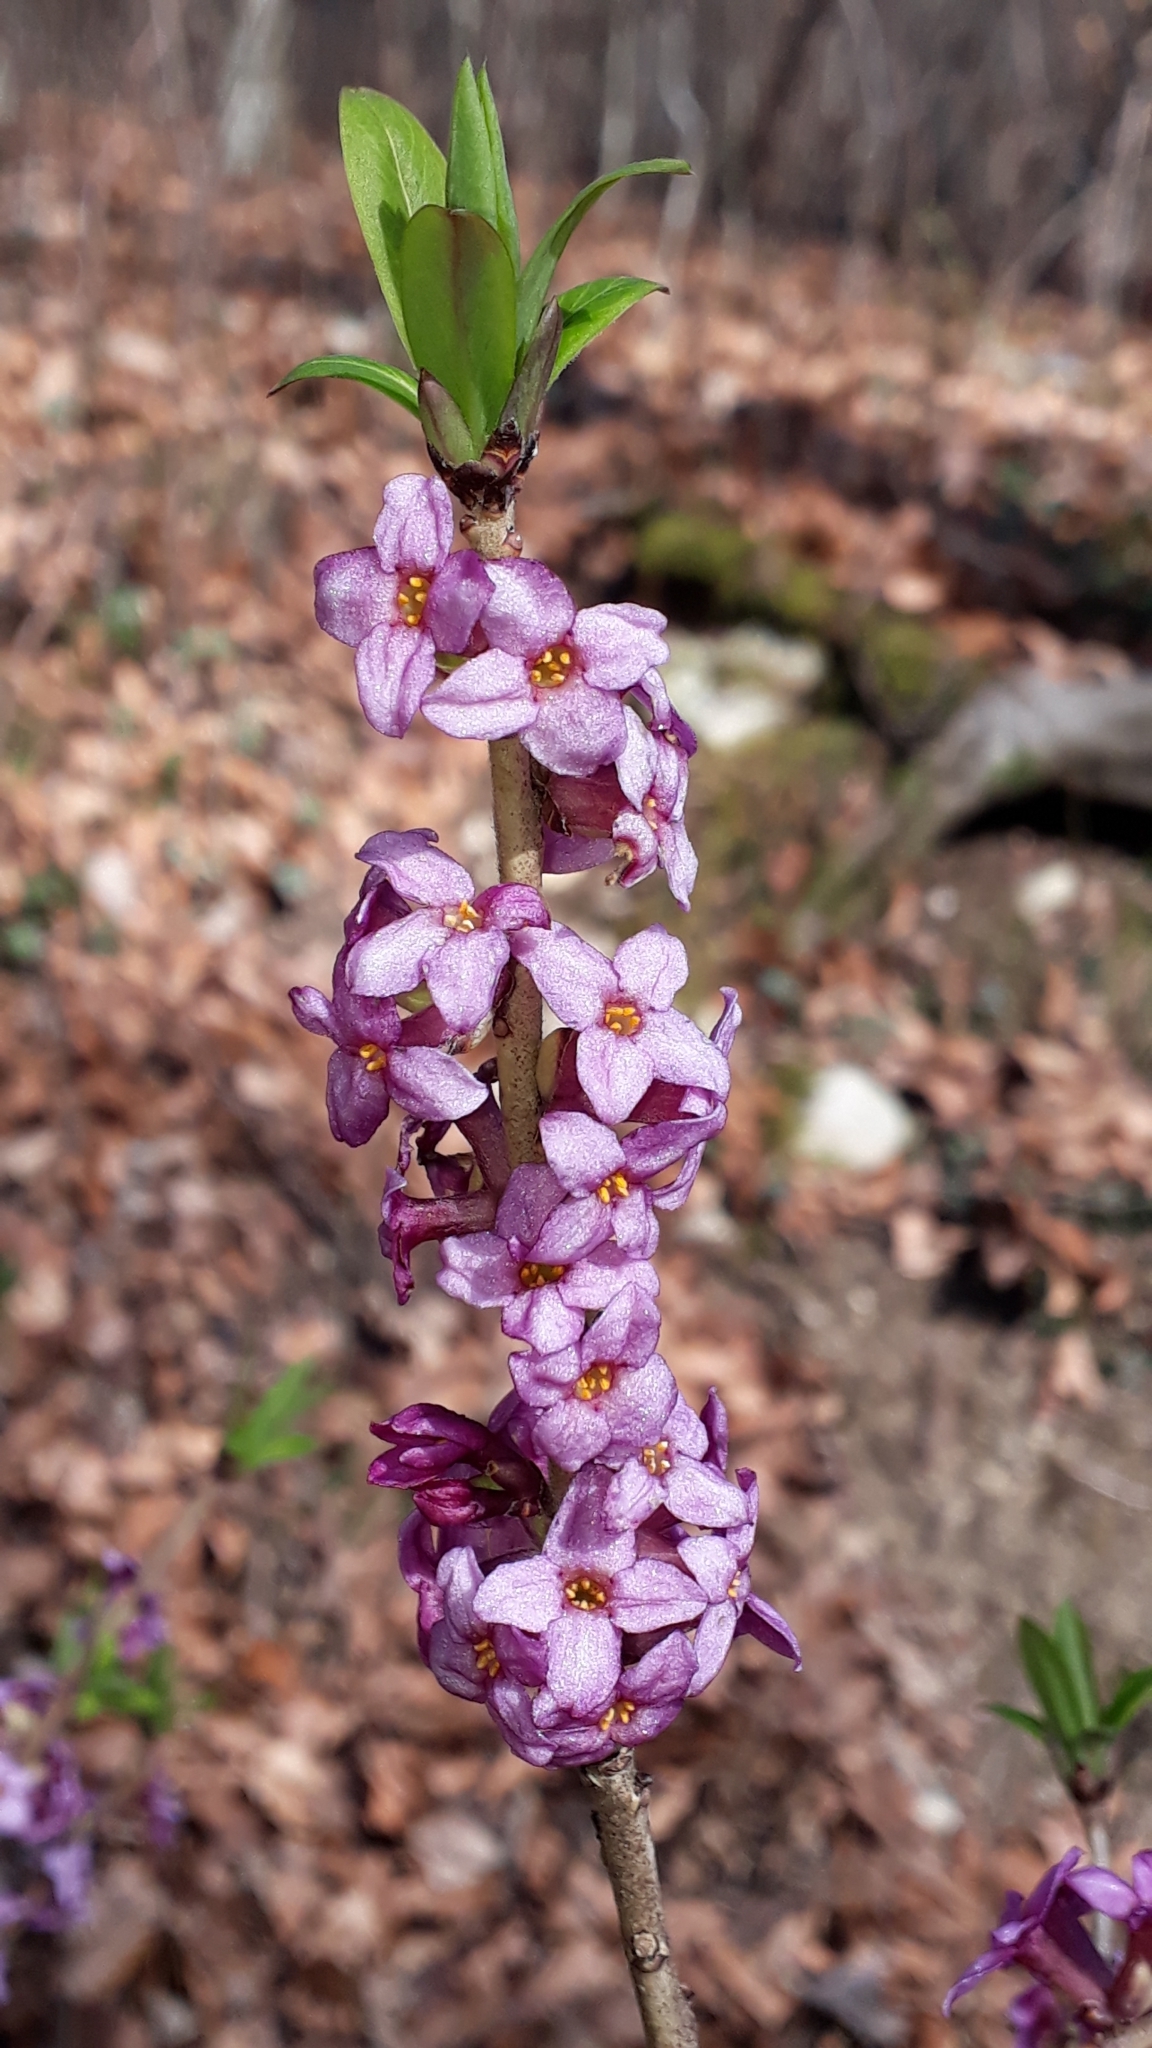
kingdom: Plantae
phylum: Tracheophyta
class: Magnoliopsida
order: Malvales
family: Thymelaeaceae
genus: Daphne
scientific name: Daphne mezereum
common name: Mezereon
